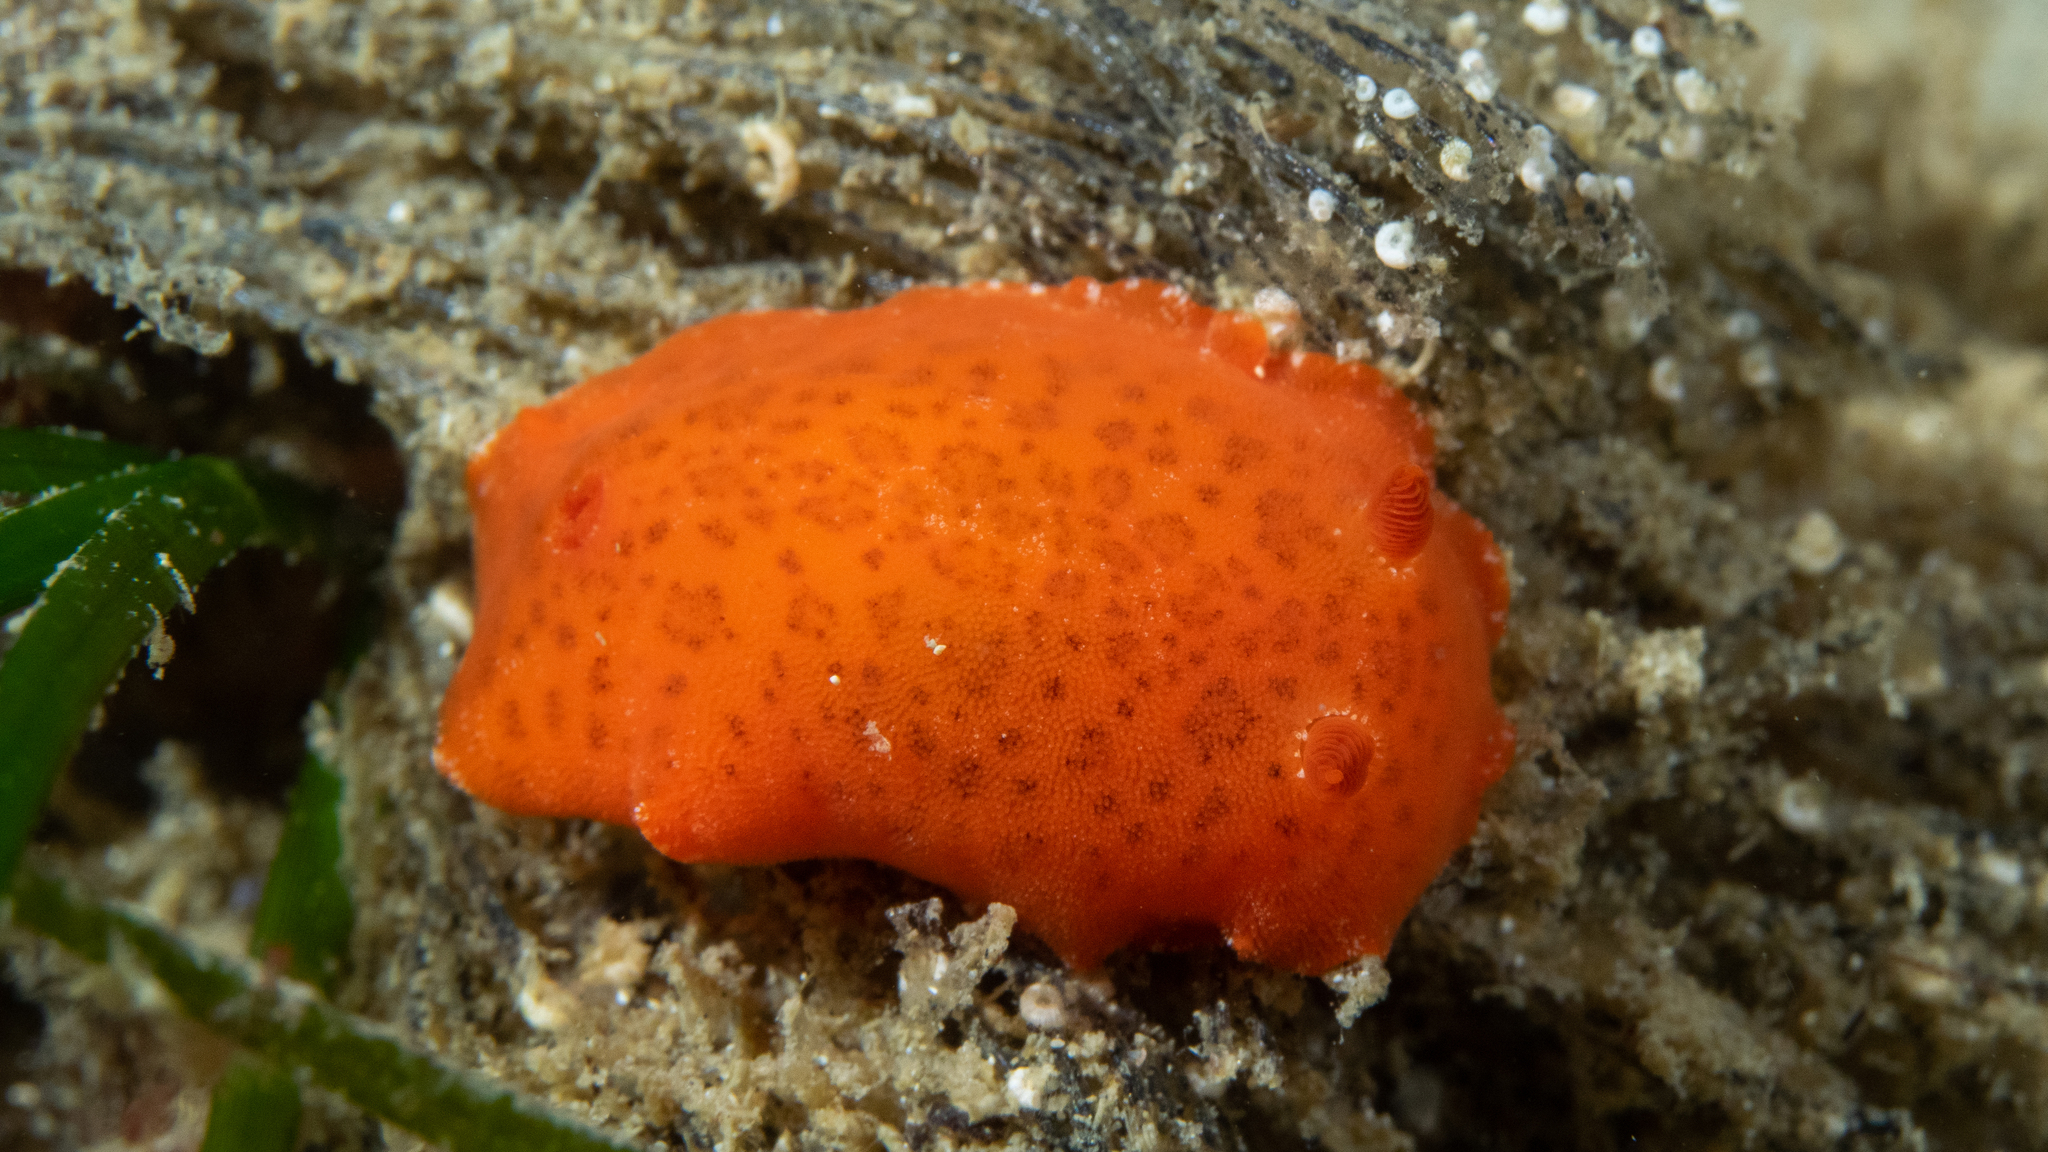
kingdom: Animalia
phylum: Mollusca
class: Gastropoda
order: Nudibranchia
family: Discodorididae
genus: Discodoris
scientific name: Discodoris paroa
